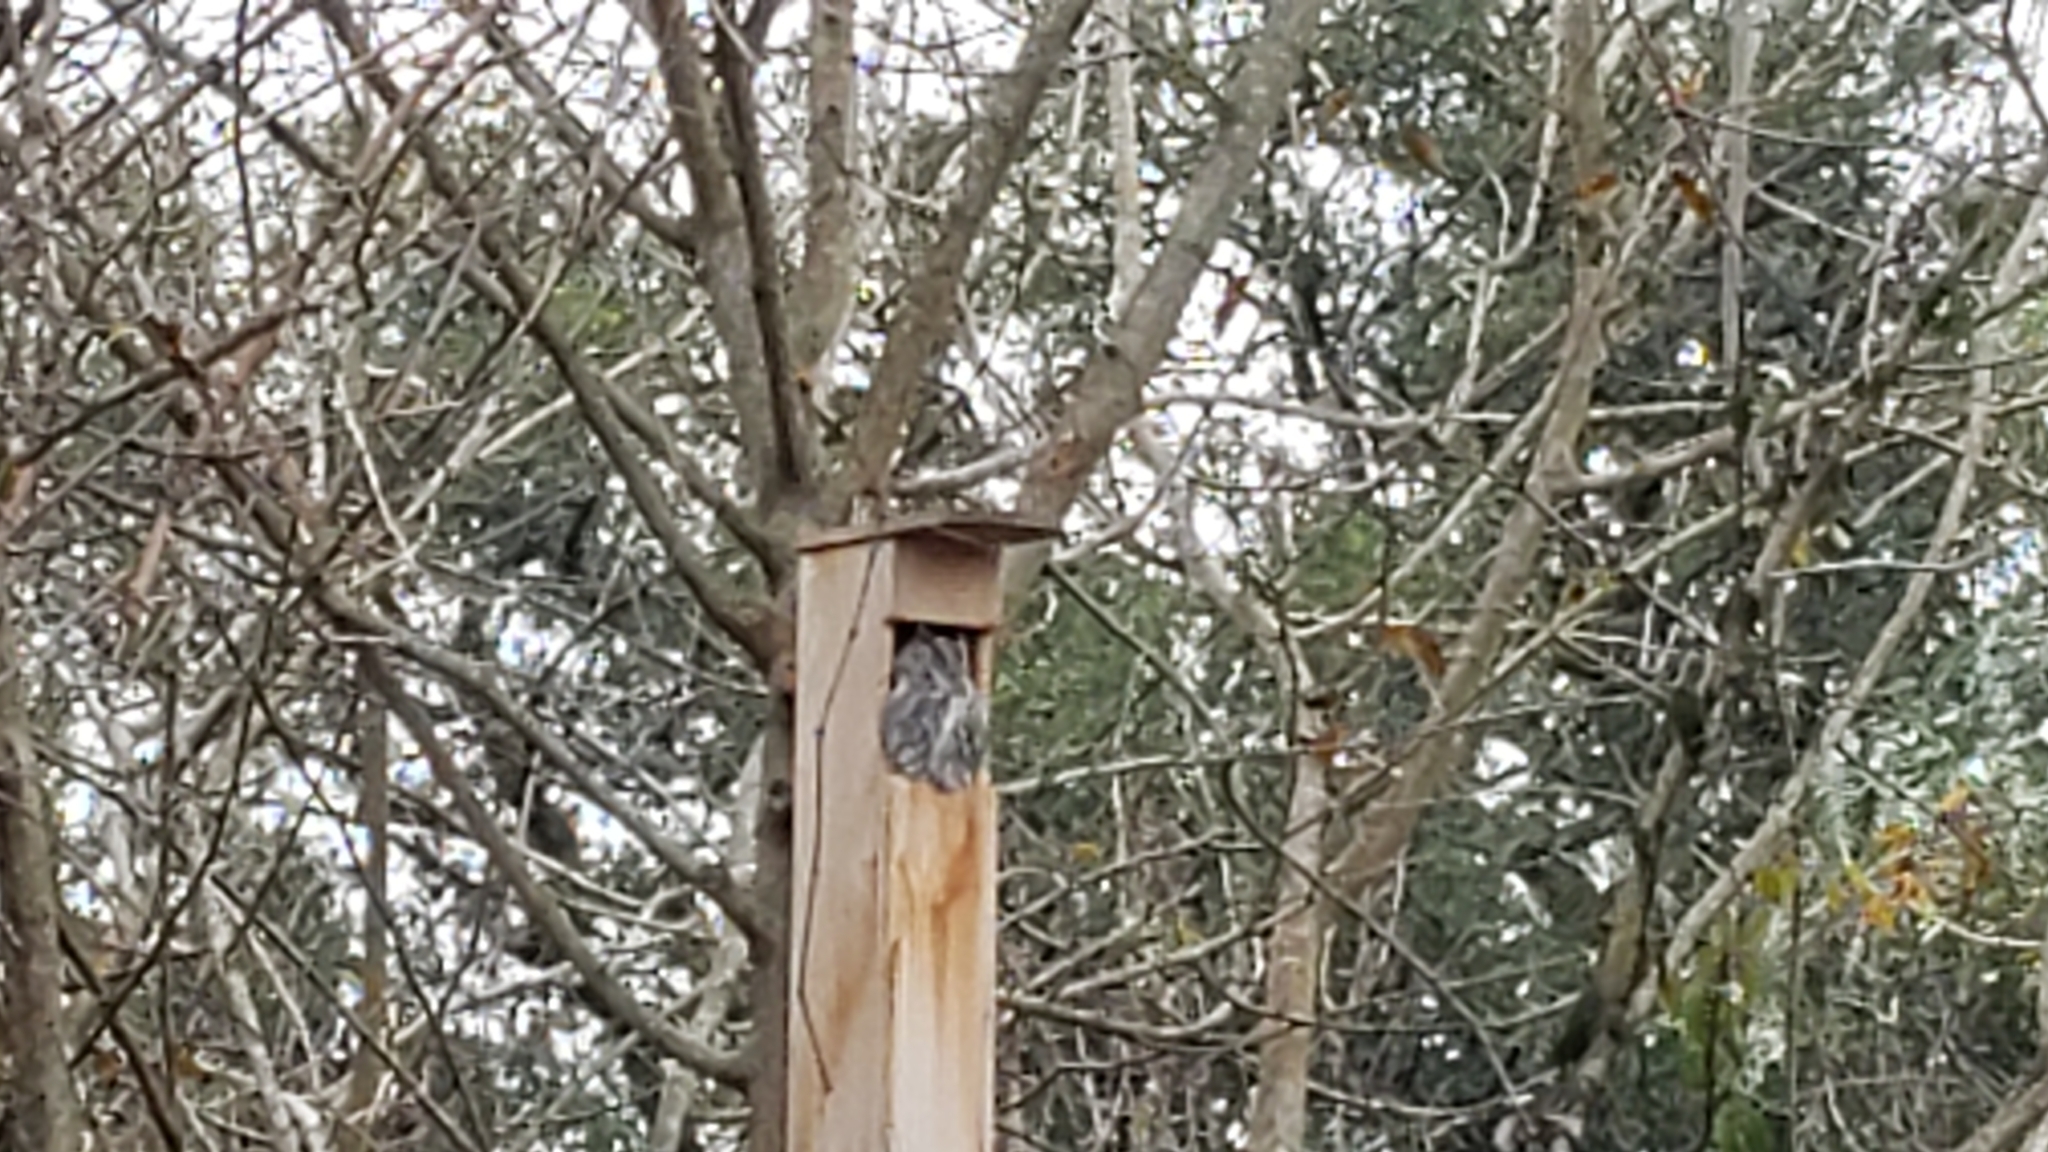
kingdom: Animalia
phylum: Chordata
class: Aves
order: Strigiformes
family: Strigidae
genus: Megascops
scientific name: Megascops asio
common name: Eastern screech-owl
